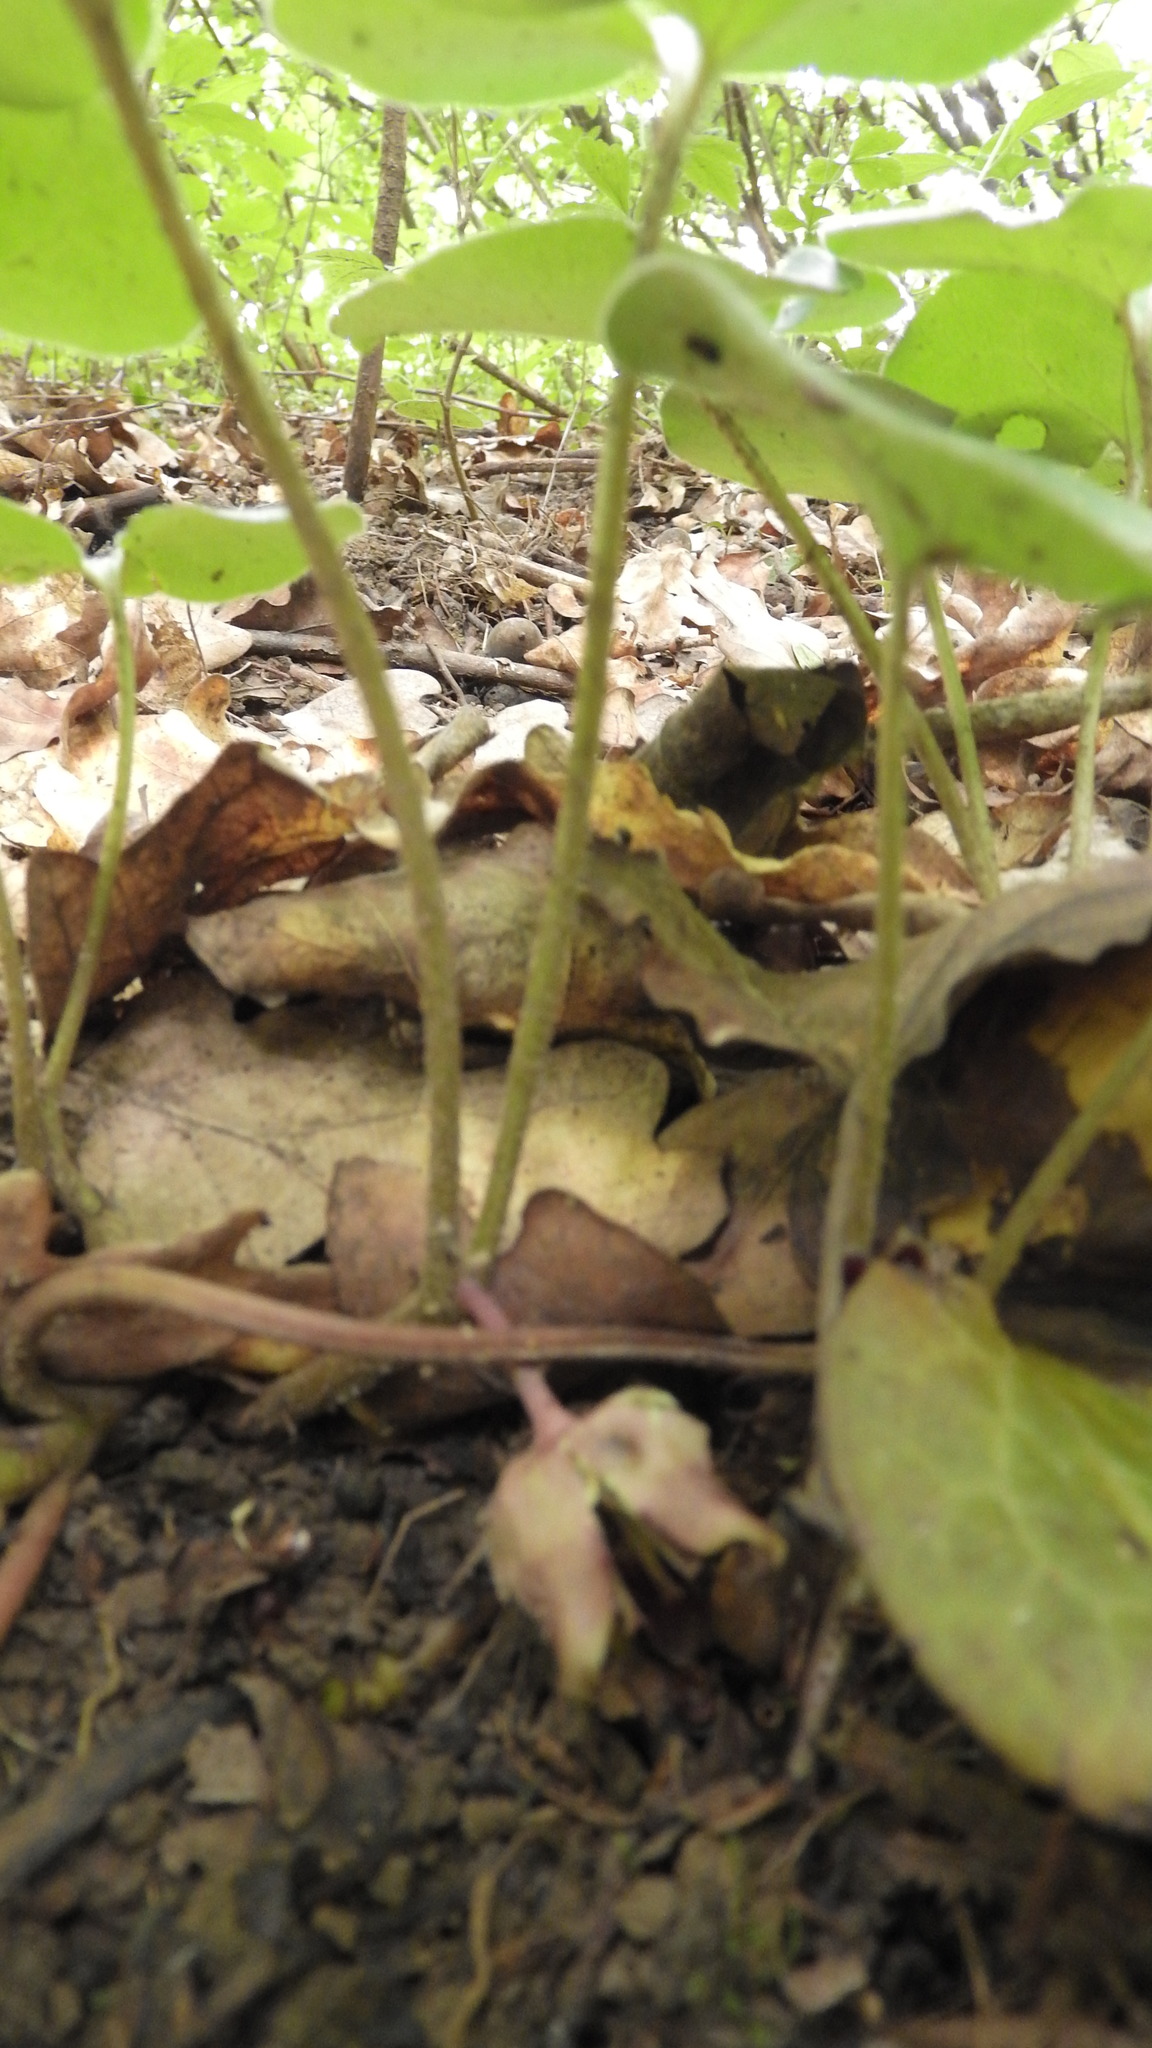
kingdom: Plantae
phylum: Tracheophyta
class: Magnoliopsida
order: Piperales
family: Aristolochiaceae
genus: Asarum
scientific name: Asarum europaeum
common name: Asarabacca
